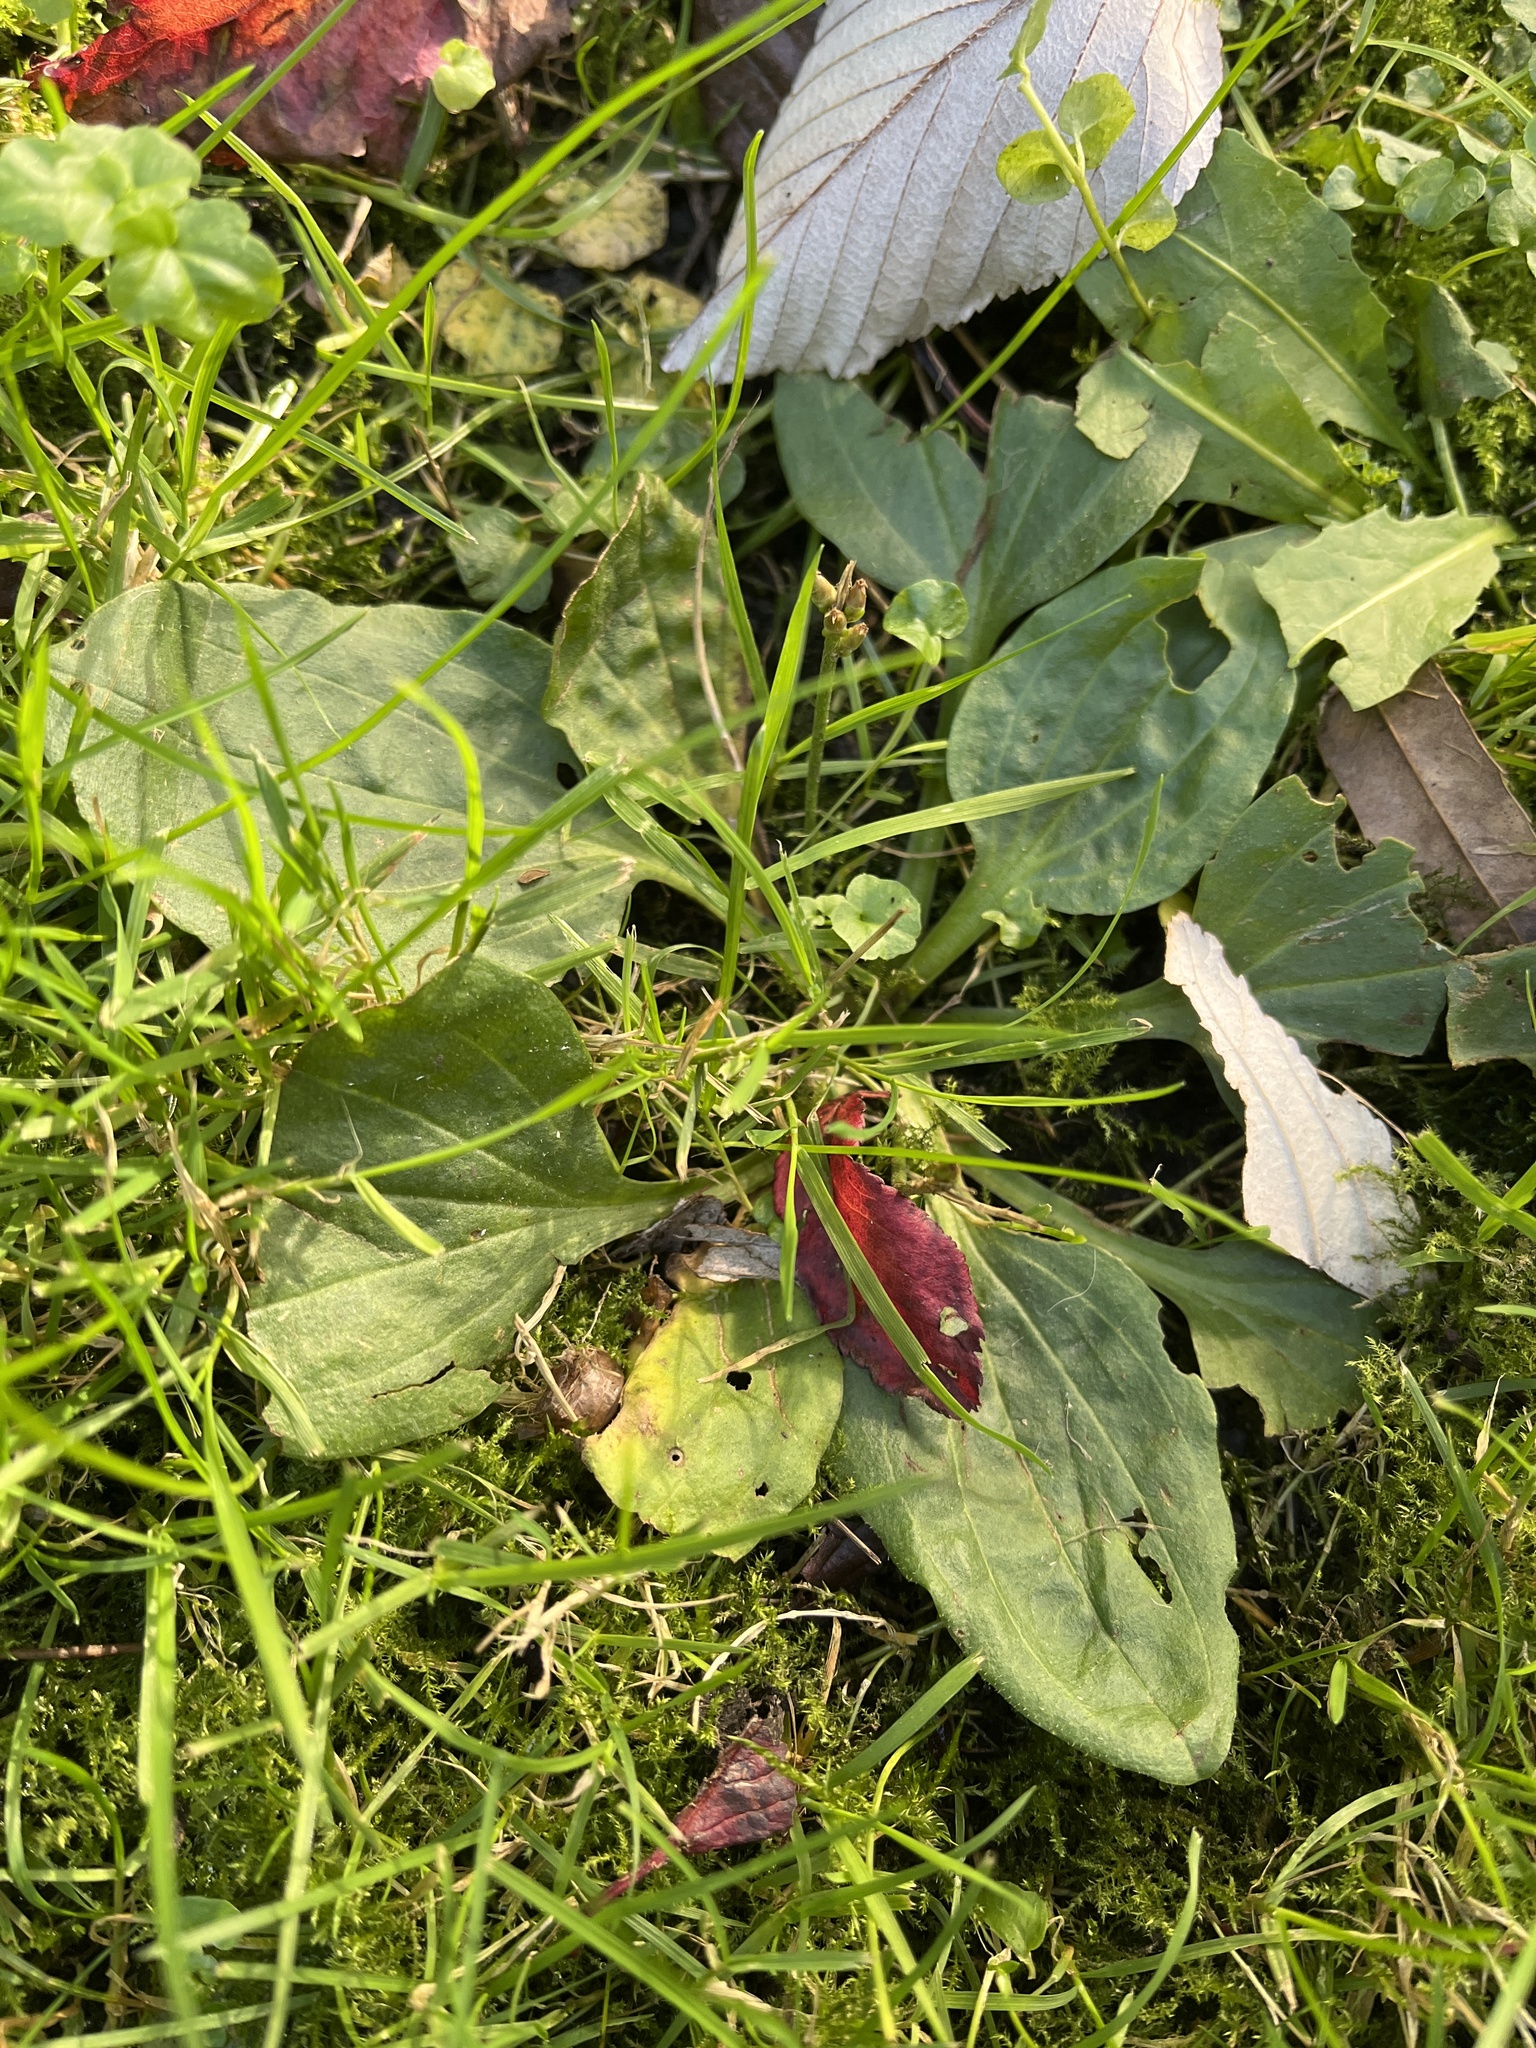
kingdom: Plantae
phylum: Tracheophyta
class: Magnoliopsida
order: Lamiales
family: Plantaginaceae
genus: Plantago
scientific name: Plantago major
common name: Common plantain
